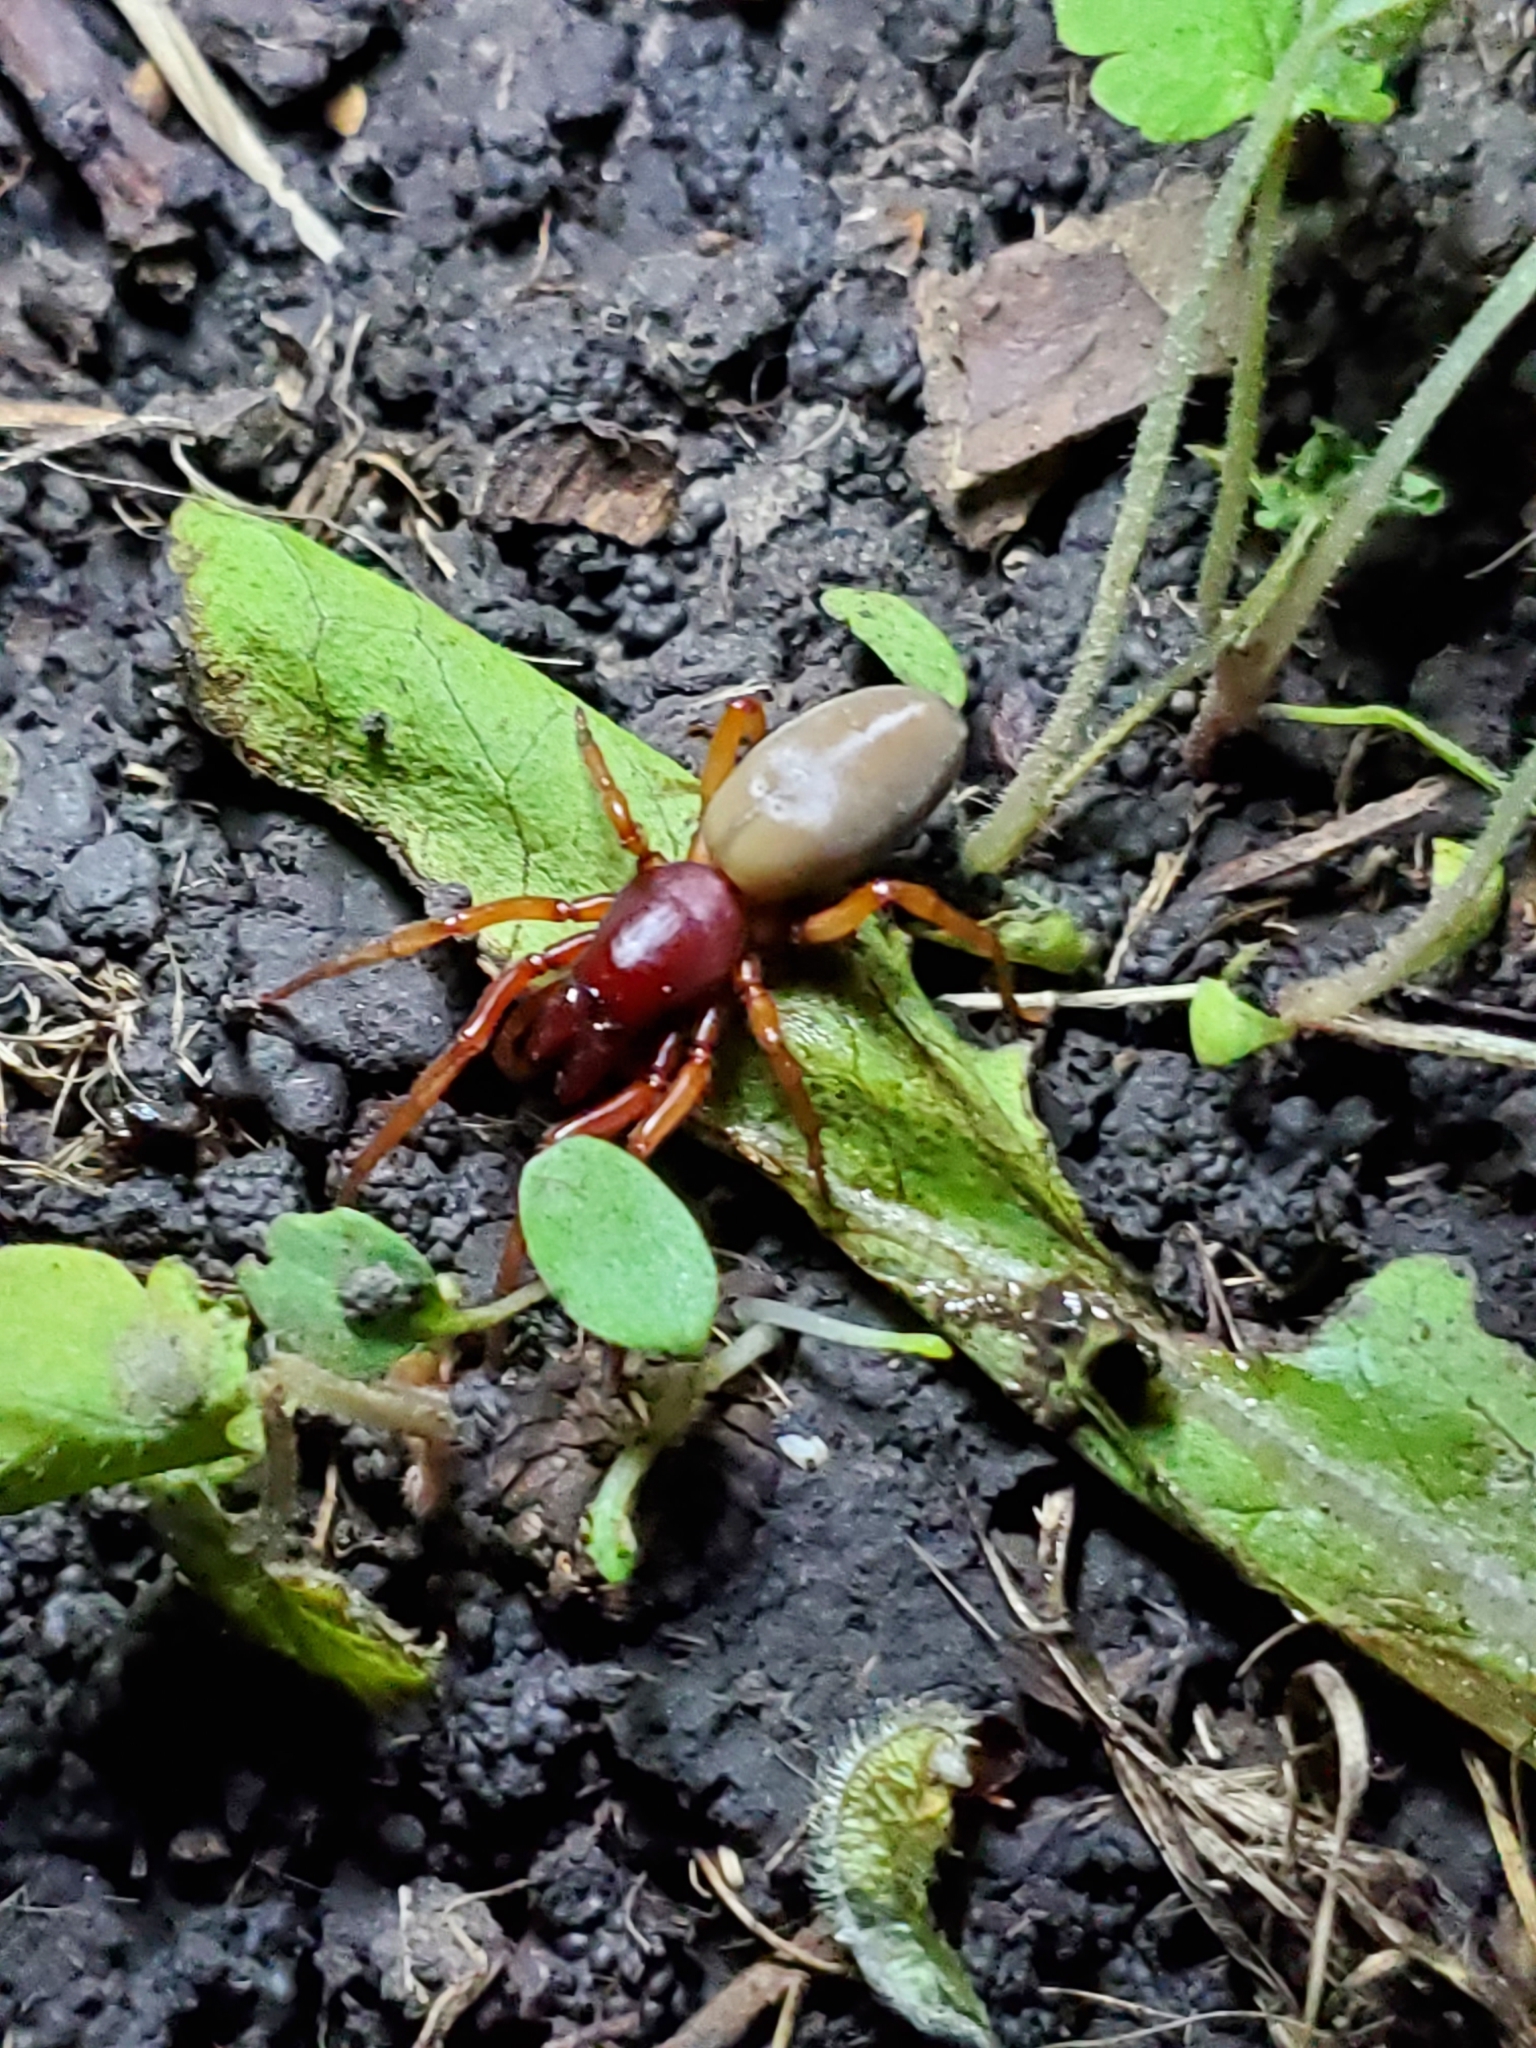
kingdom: Animalia
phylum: Arthropoda
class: Arachnida
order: Araneae
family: Dysderidae
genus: Dysdera
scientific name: Dysdera crocata
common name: Woodlouse spider
